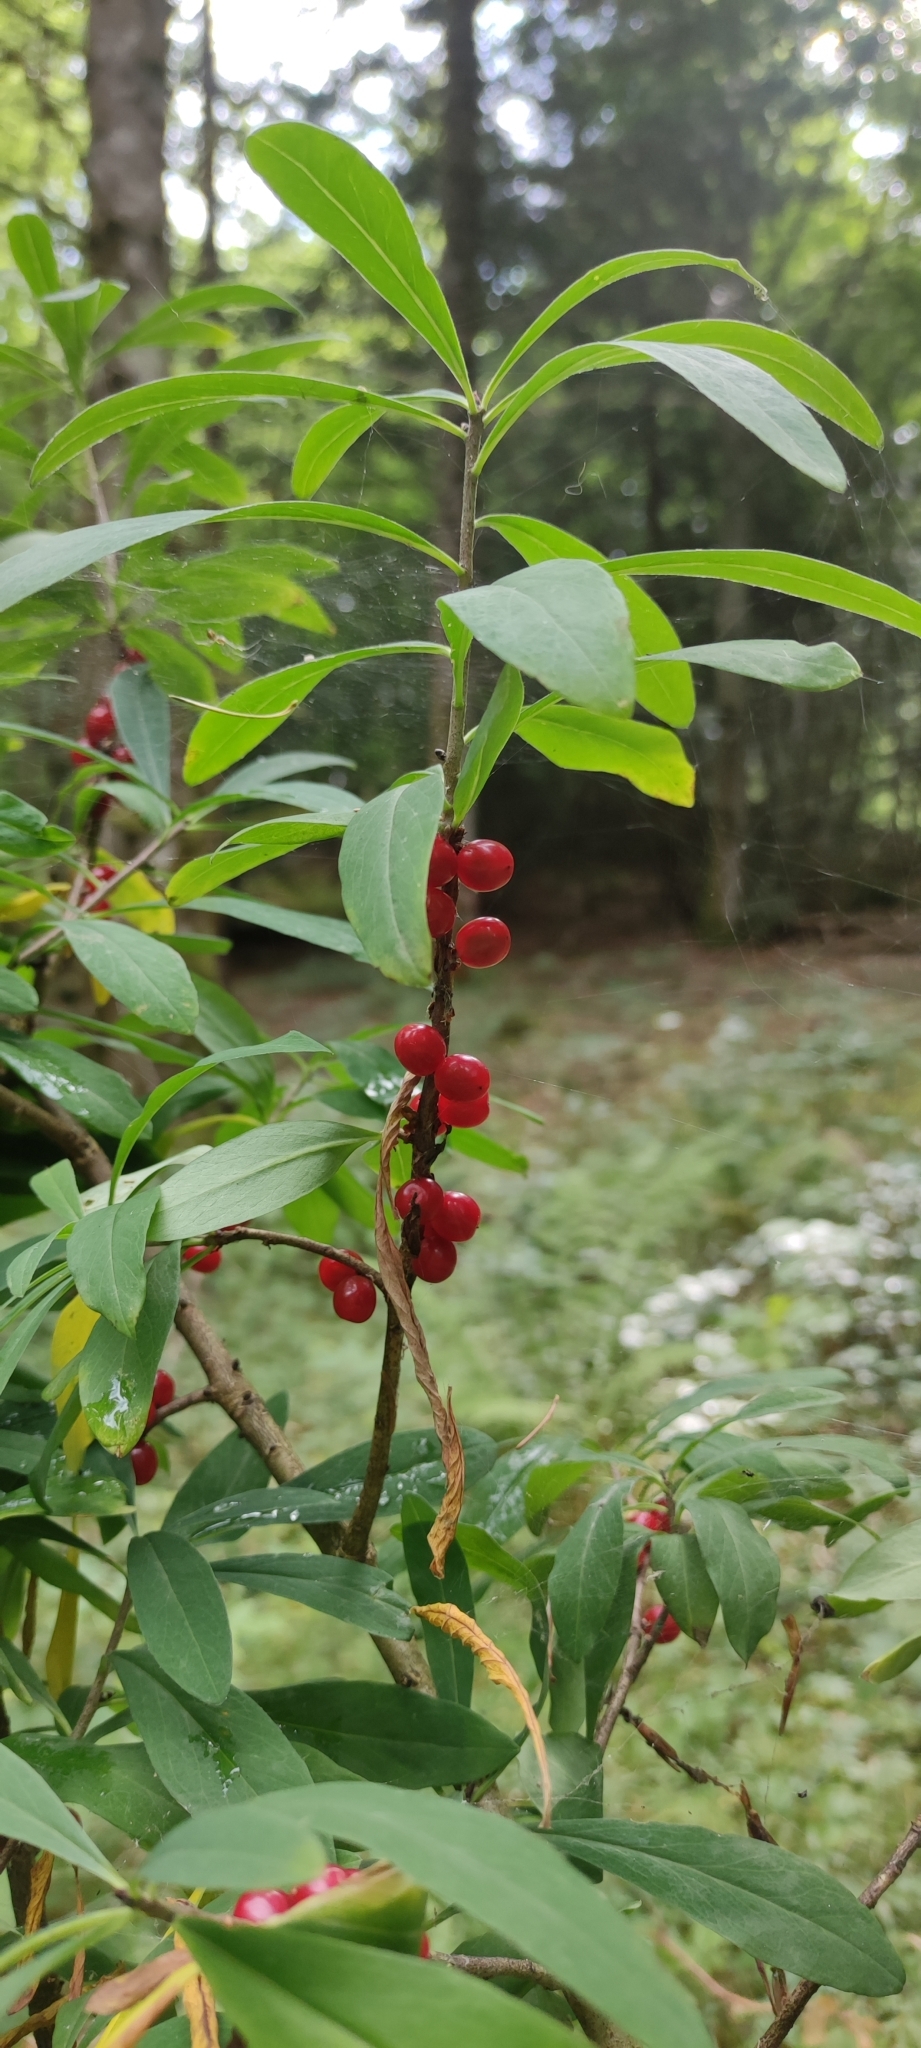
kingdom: Plantae
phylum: Tracheophyta
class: Magnoliopsida
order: Malvales
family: Thymelaeaceae
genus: Daphne
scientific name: Daphne mezereum
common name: Mezereon
